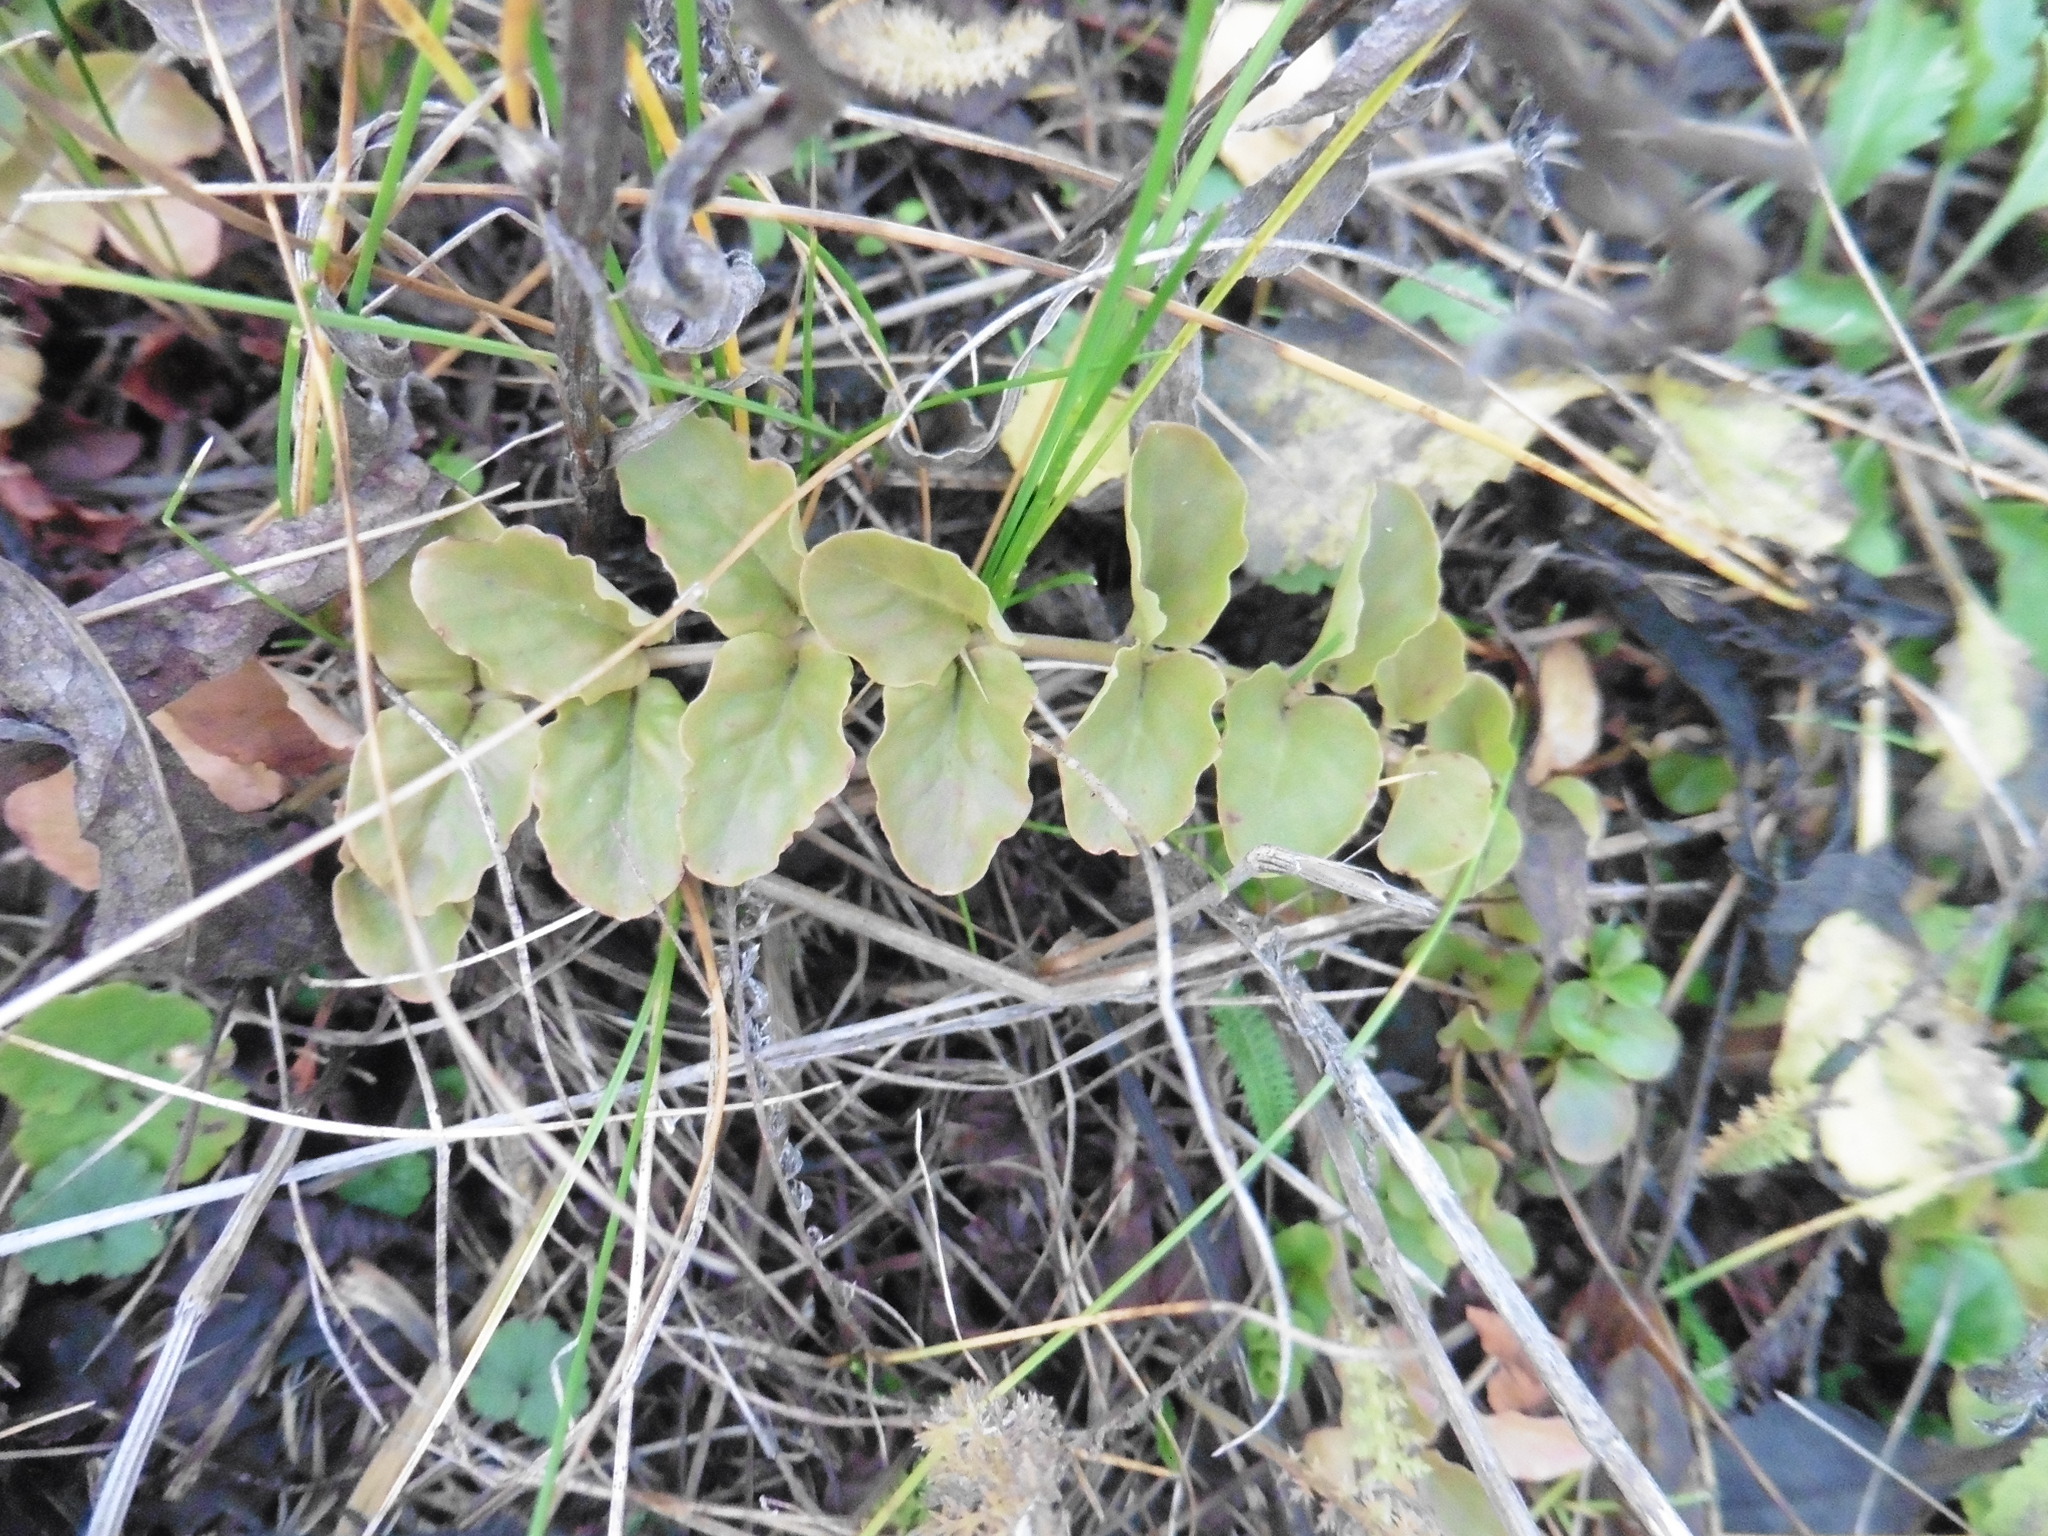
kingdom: Plantae
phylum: Tracheophyta
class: Magnoliopsida
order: Ericales
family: Primulaceae
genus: Lysimachia
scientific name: Lysimachia nummularia
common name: Moneywort
